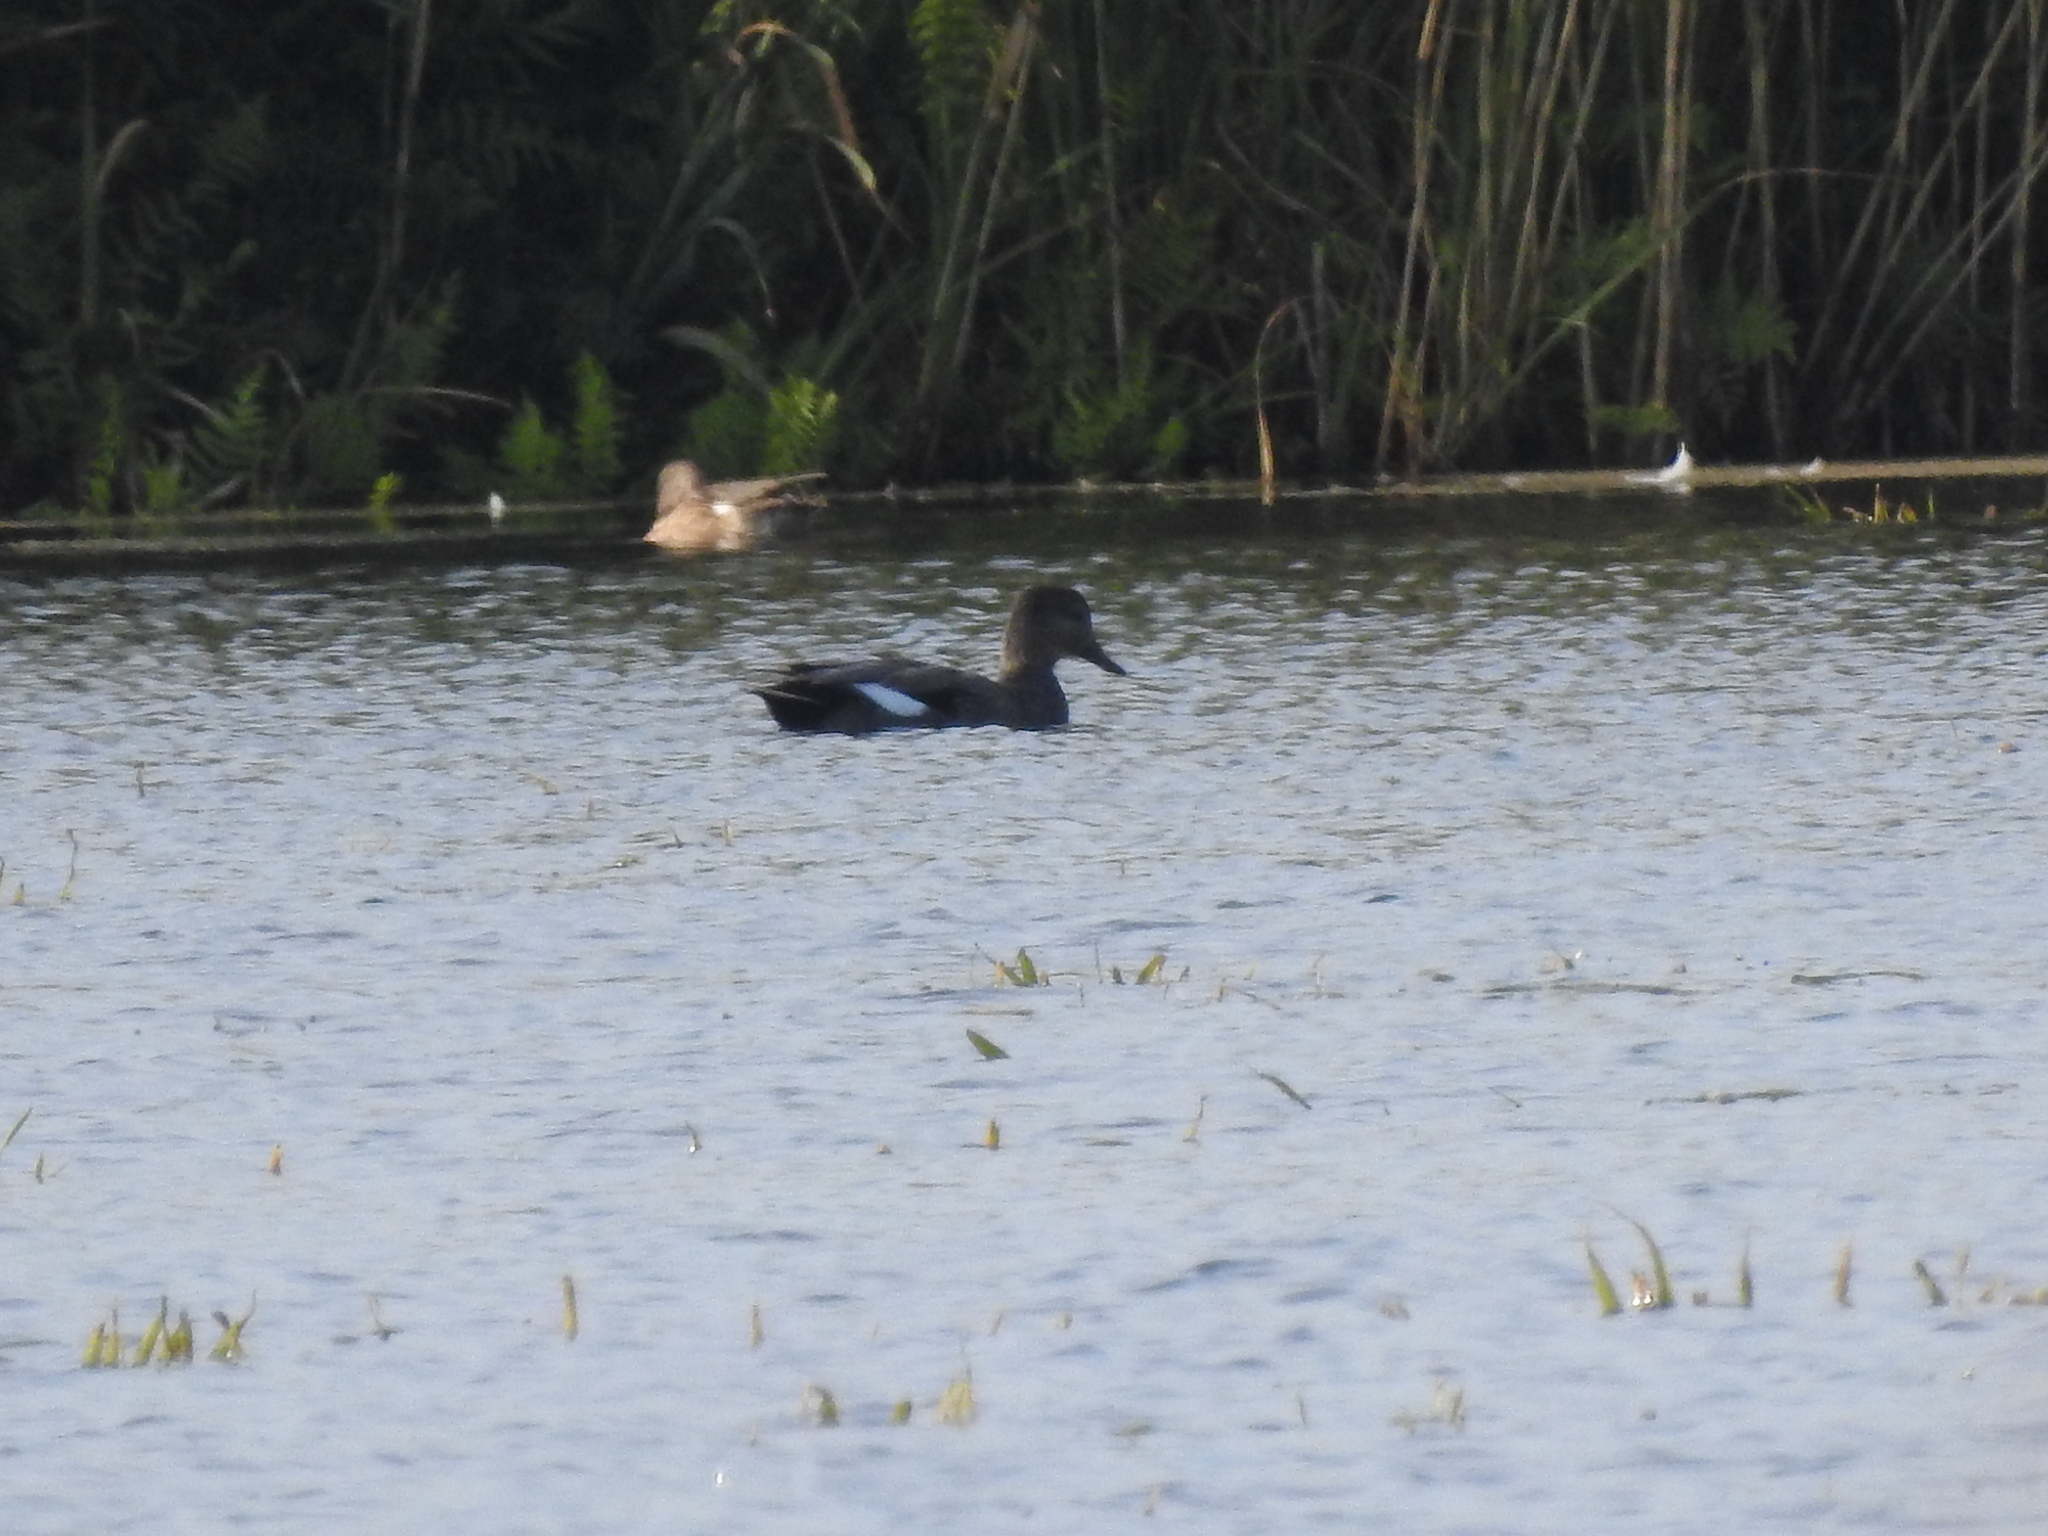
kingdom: Animalia
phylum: Chordata
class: Aves
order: Anseriformes
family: Anatidae
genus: Mareca
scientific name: Mareca strepera
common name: Gadwall
